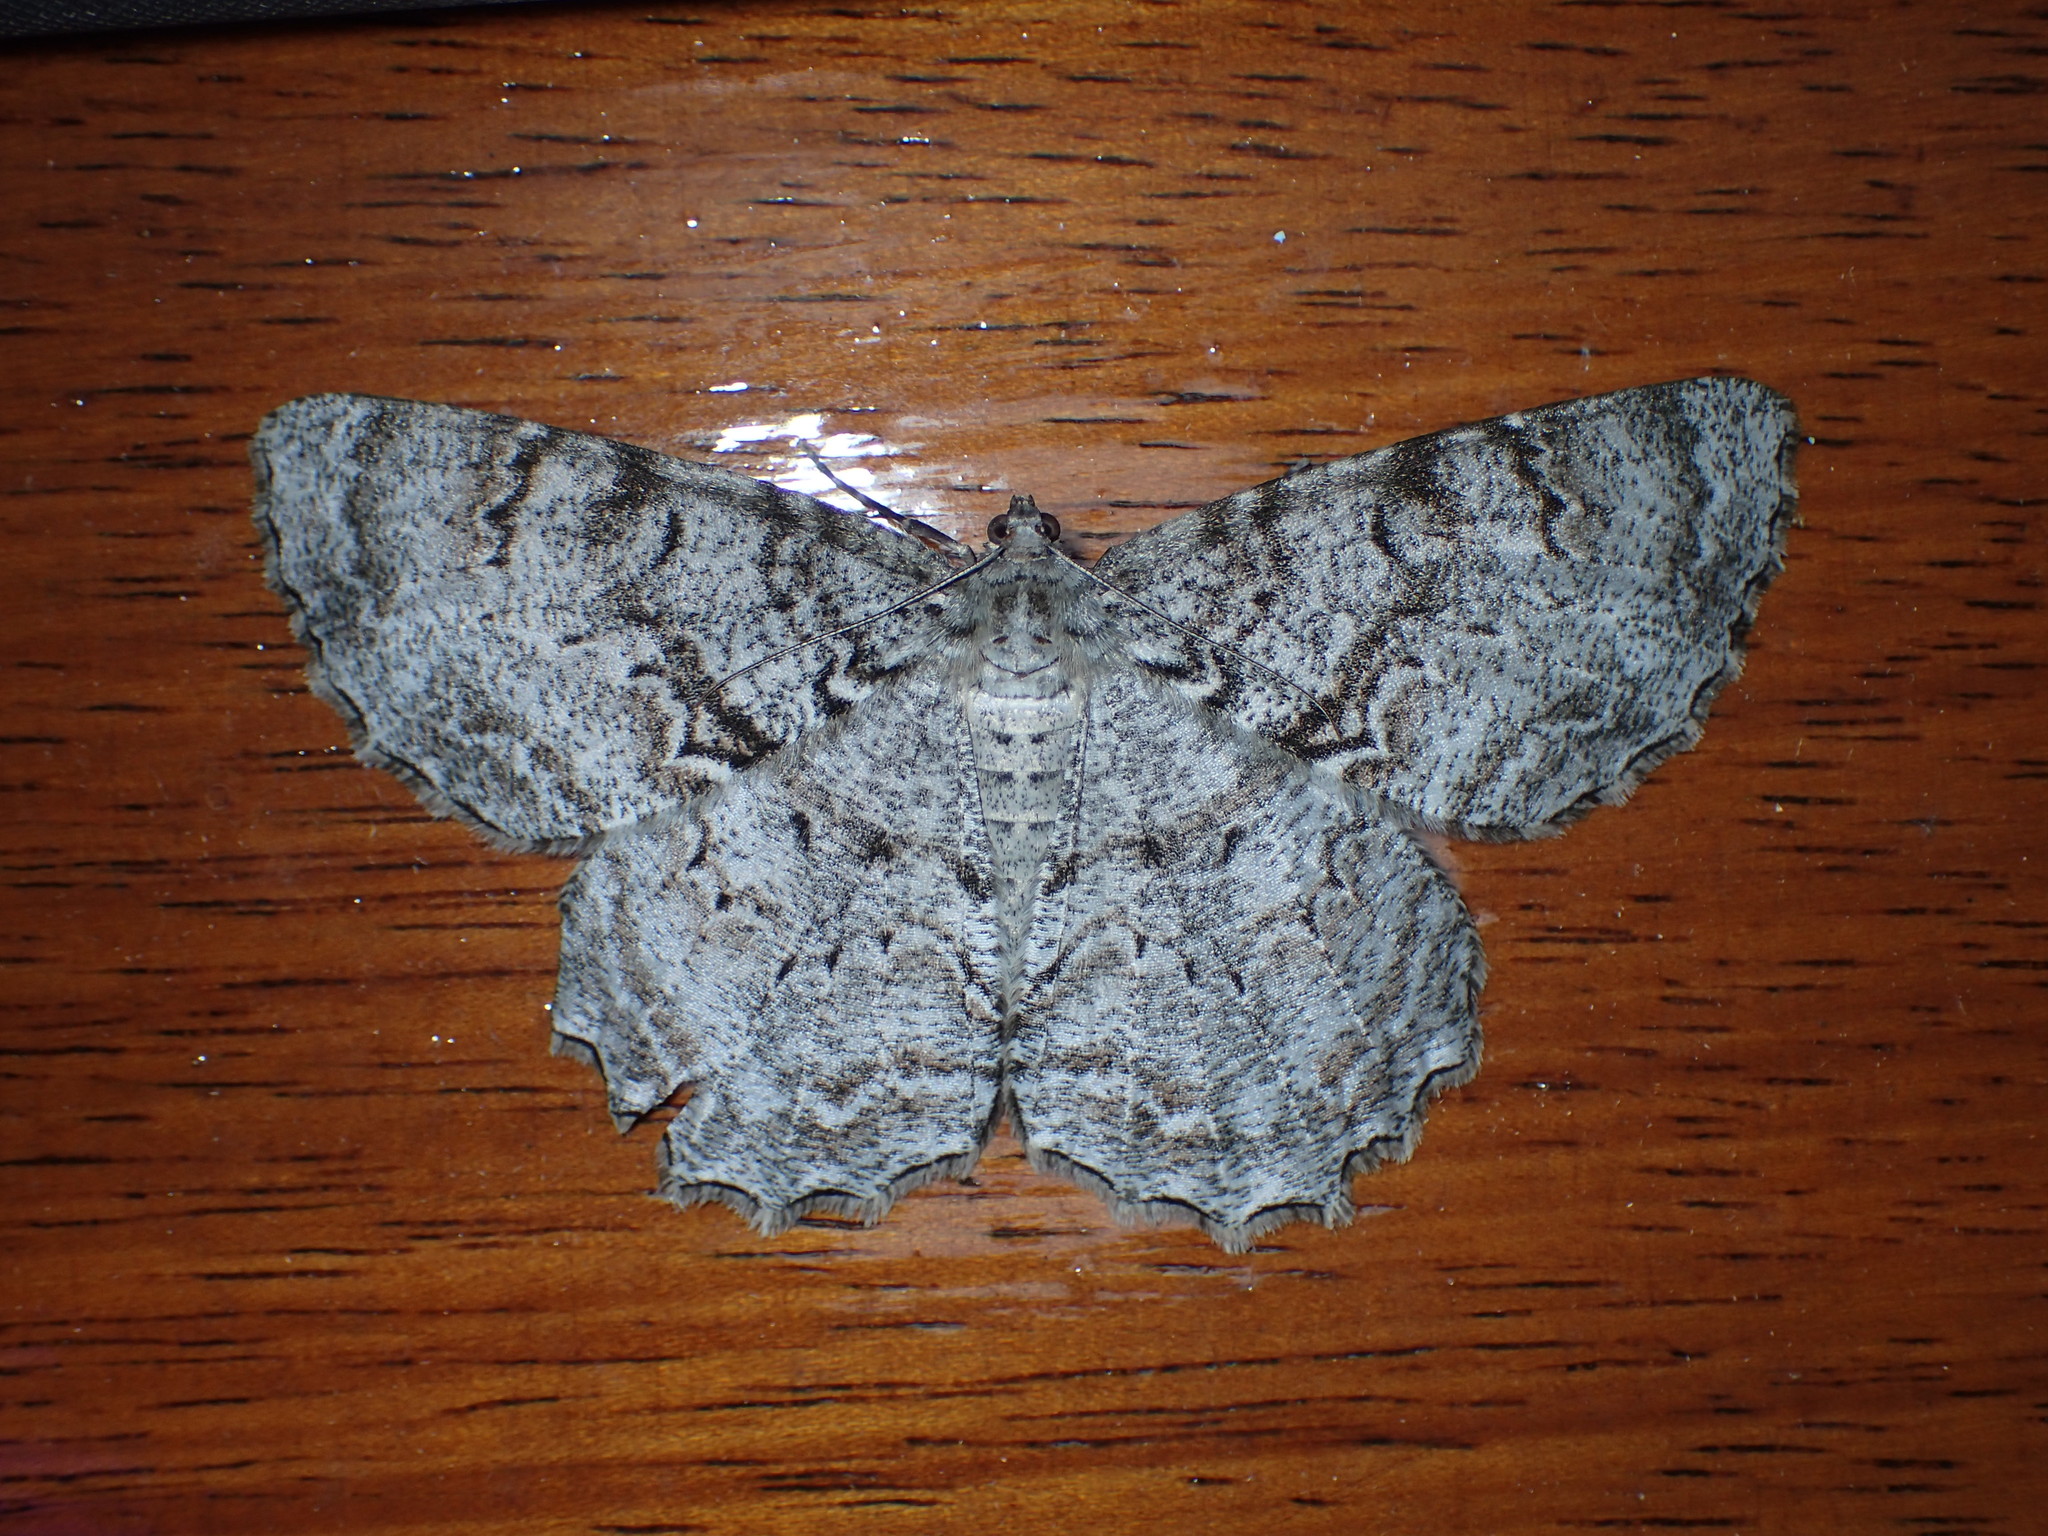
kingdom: Animalia
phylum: Arthropoda
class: Insecta
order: Lepidoptera
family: Geometridae
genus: Epimecis
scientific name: Epimecis hortaria
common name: Tulip-tree beauty
